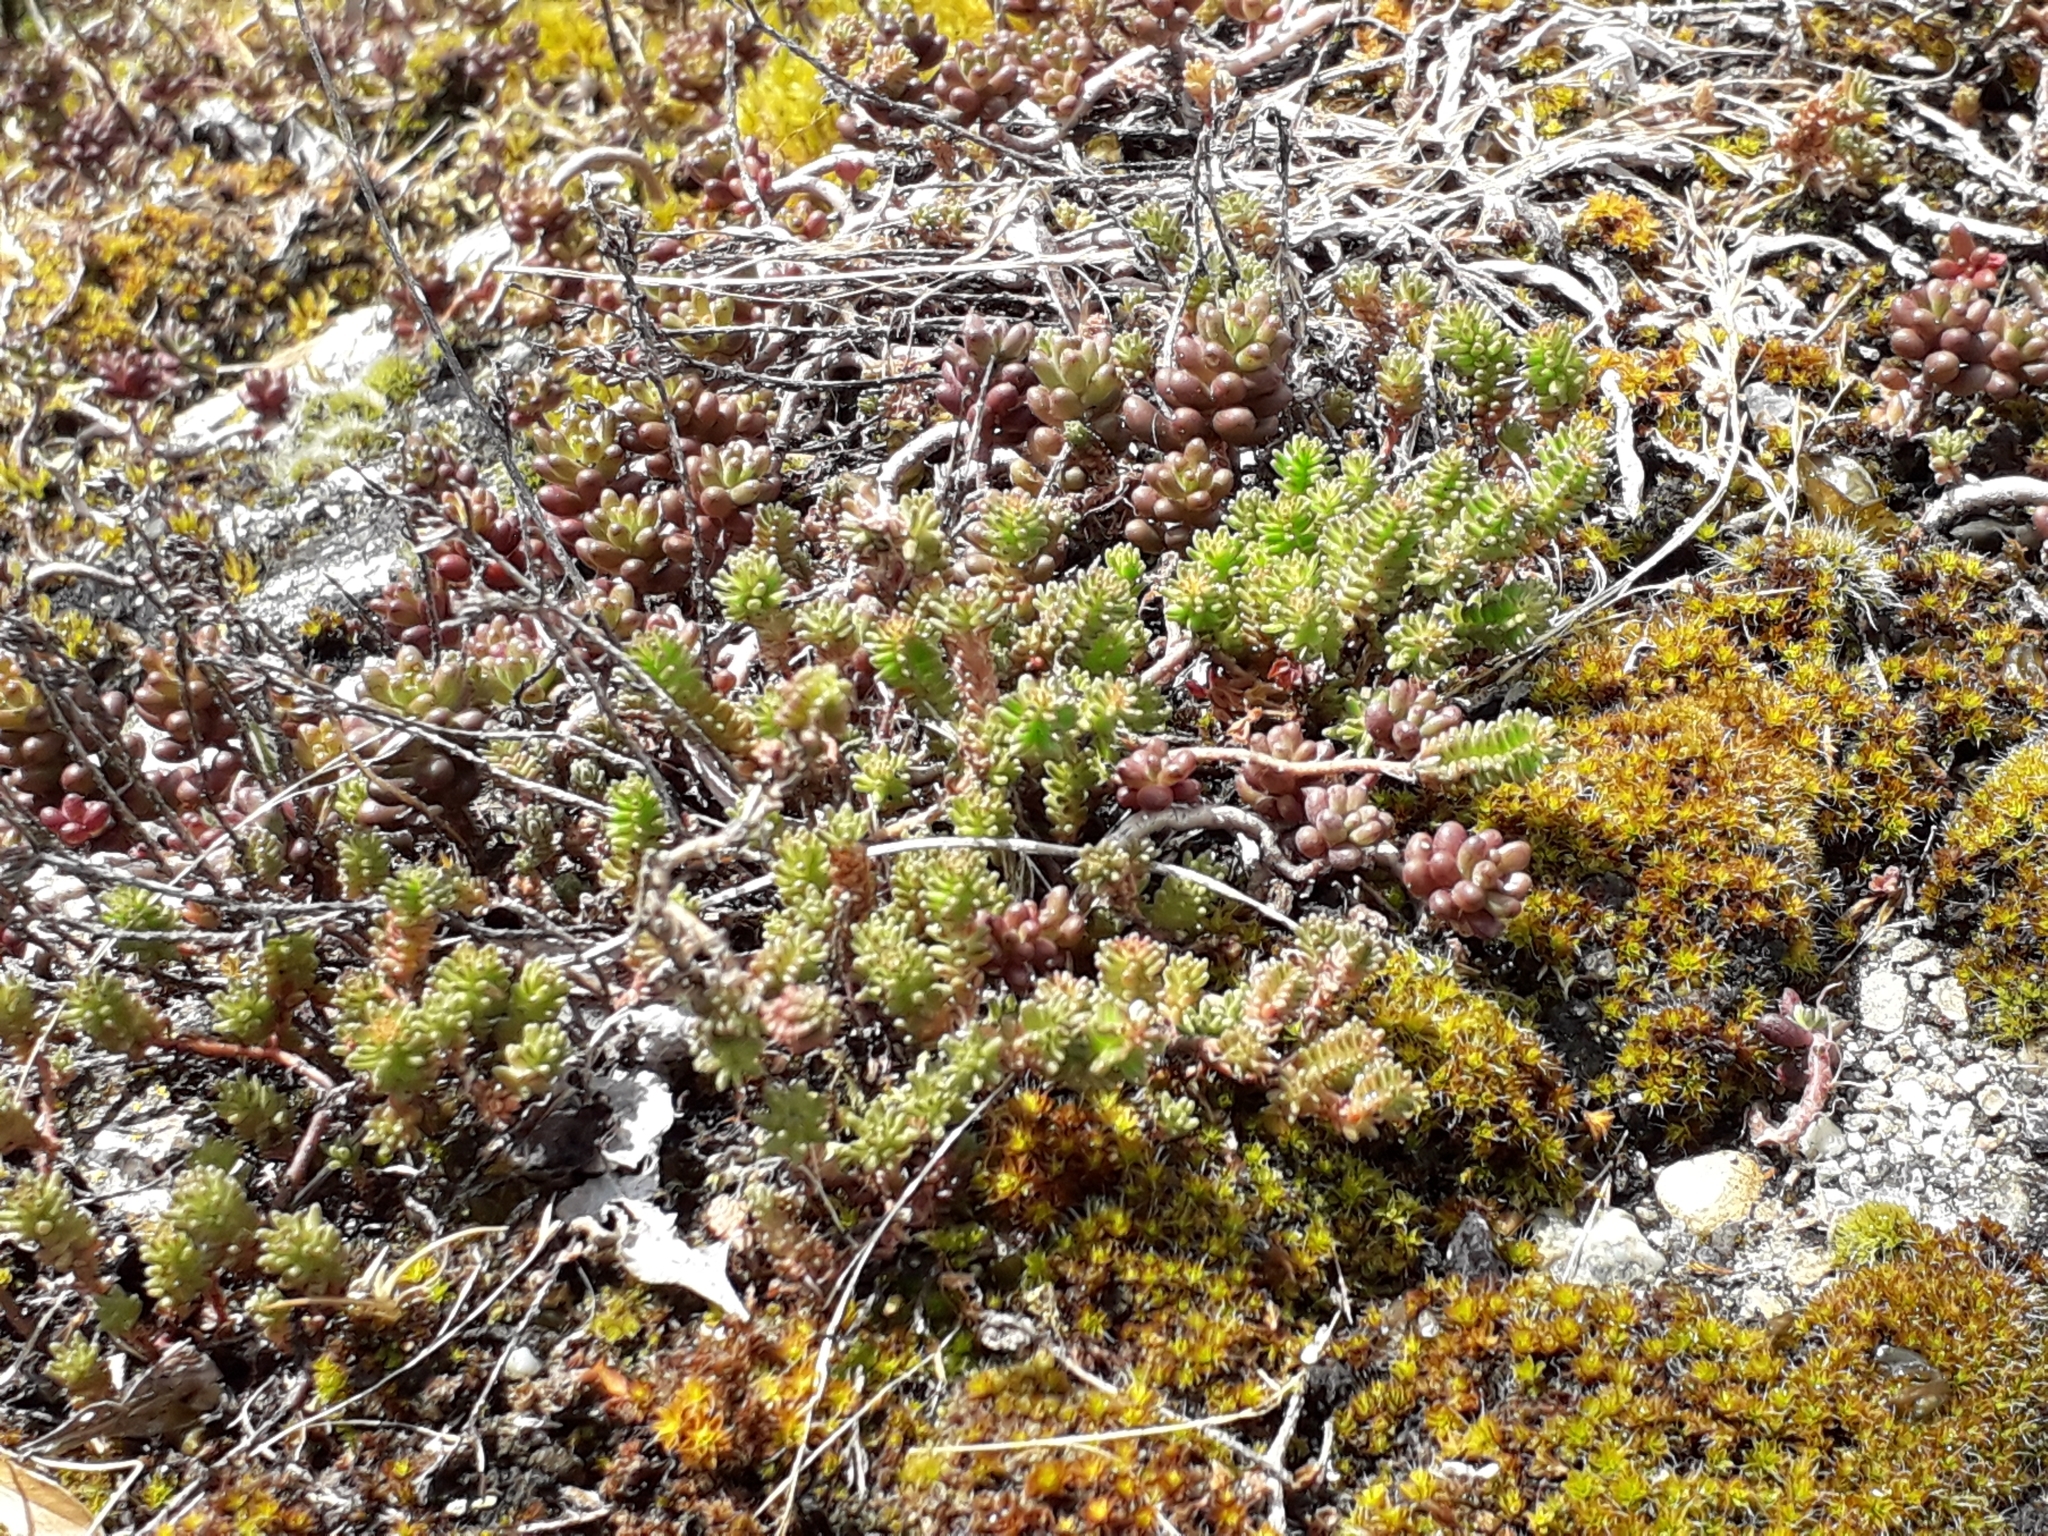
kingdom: Plantae
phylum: Tracheophyta
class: Magnoliopsida
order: Saxifragales
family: Crassulaceae
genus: Sedum
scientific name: Sedum album
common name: White stonecrop
